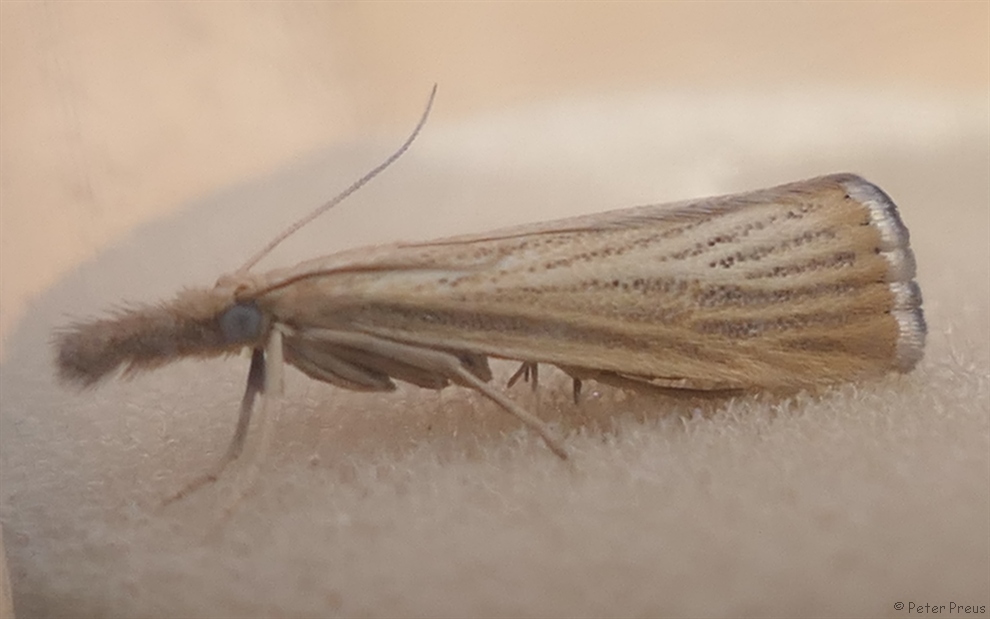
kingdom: Animalia
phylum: Arthropoda
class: Insecta
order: Lepidoptera
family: Crambidae
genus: Agriphila
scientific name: Agriphila straminella
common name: Straw grass-veneer
